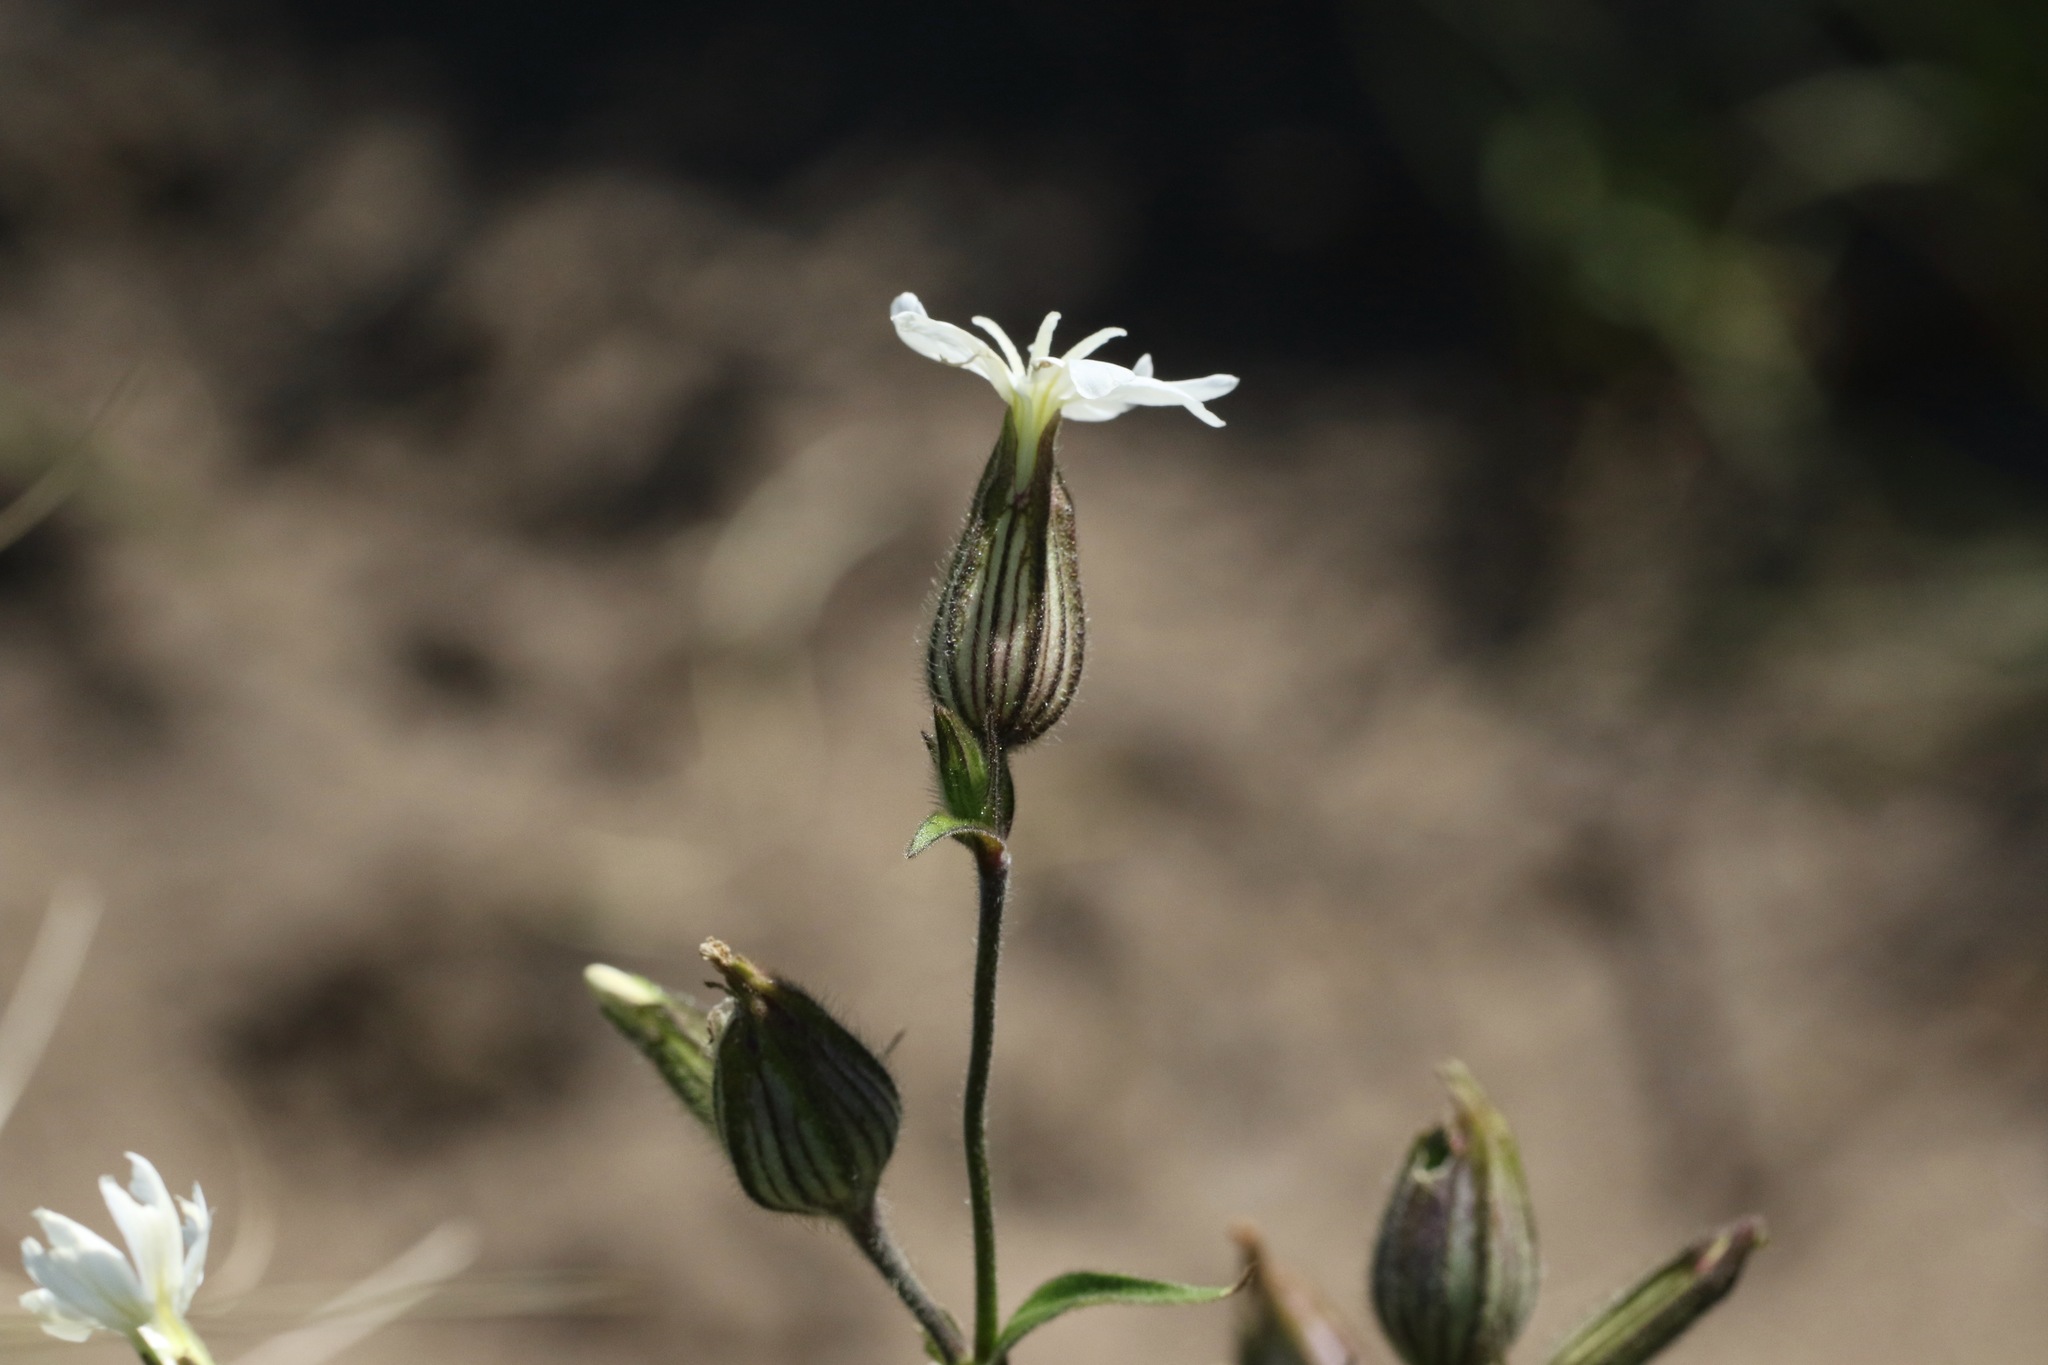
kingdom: Plantae
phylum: Tracheophyta
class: Magnoliopsida
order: Caryophyllales
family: Caryophyllaceae
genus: Silene
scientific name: Silene latifolia
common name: White campion
